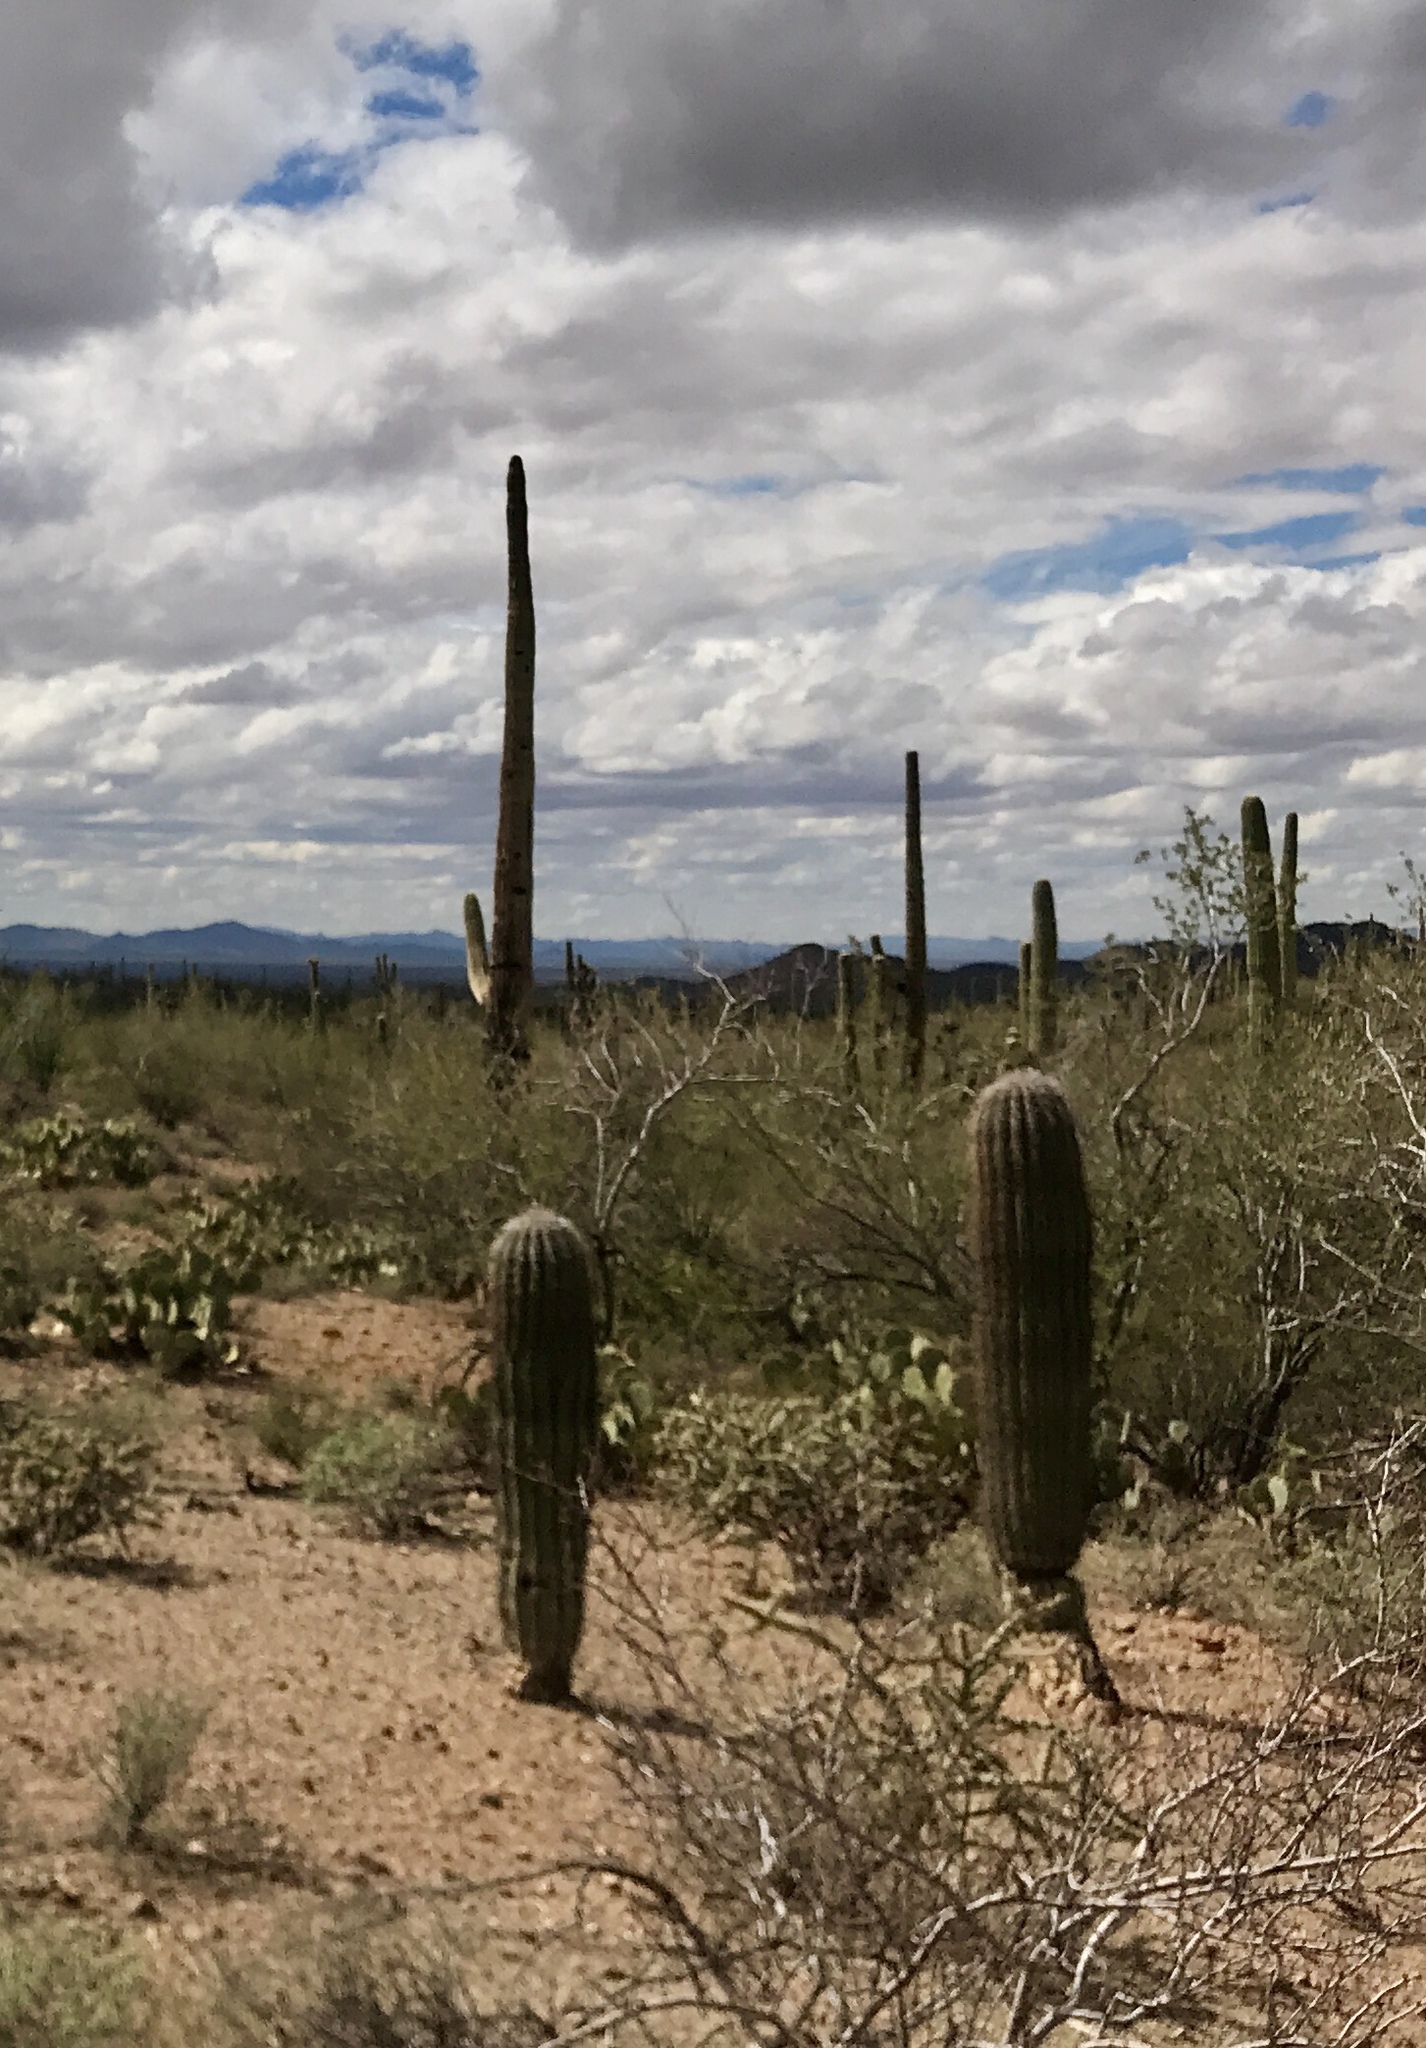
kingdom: Plantae
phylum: Tracheophyta
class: Magnoliopsida
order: Caryophyllales
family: Cactaceae
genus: Carnegiea
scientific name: Carnegiea gigantea
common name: Saguaro
